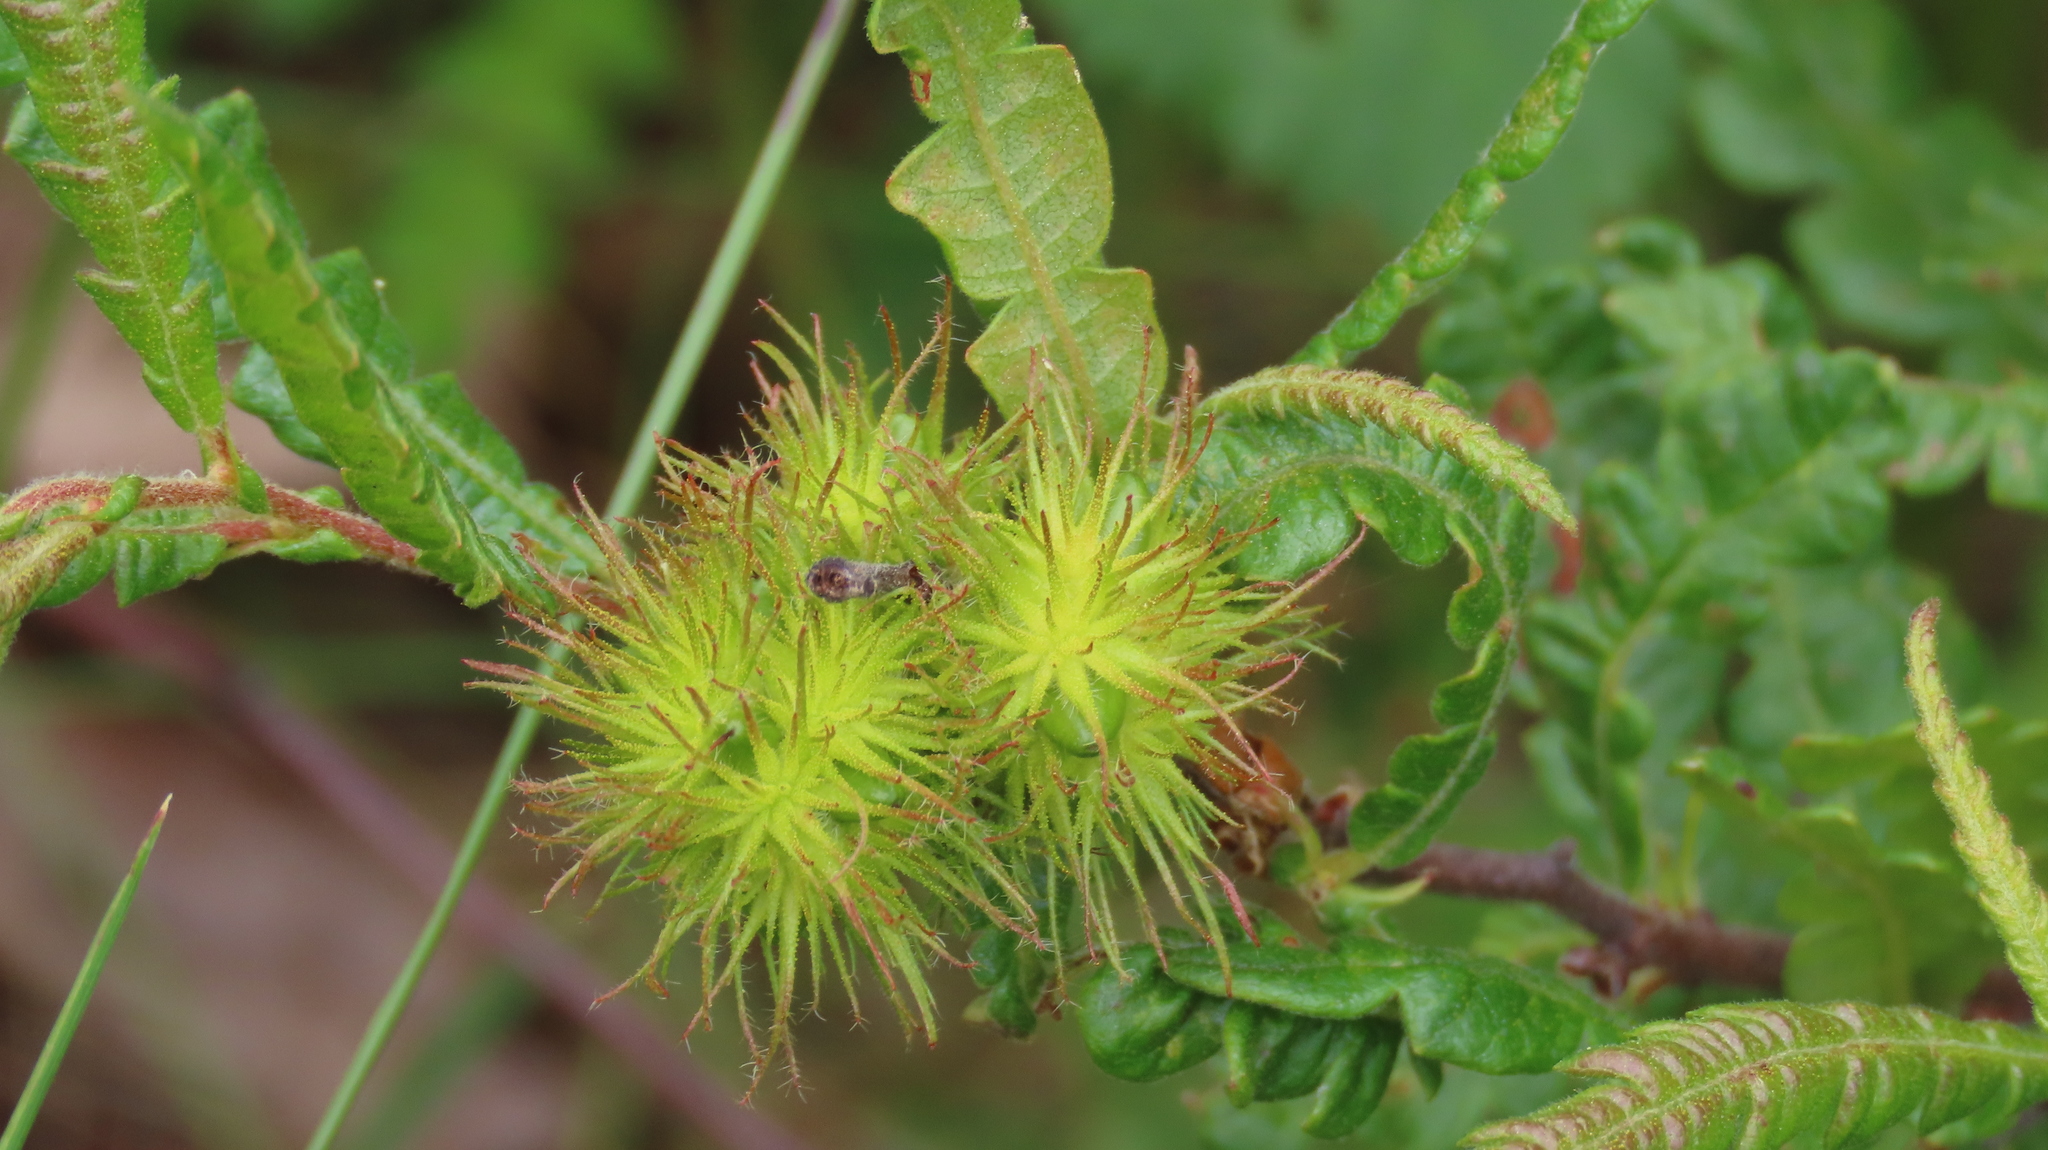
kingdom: Plantae
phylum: Tracheophyta
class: Magnoliopsida
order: Fagales
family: Myricaceae
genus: Comptonia
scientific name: Comptonia peregrina
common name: Sweet-fern
